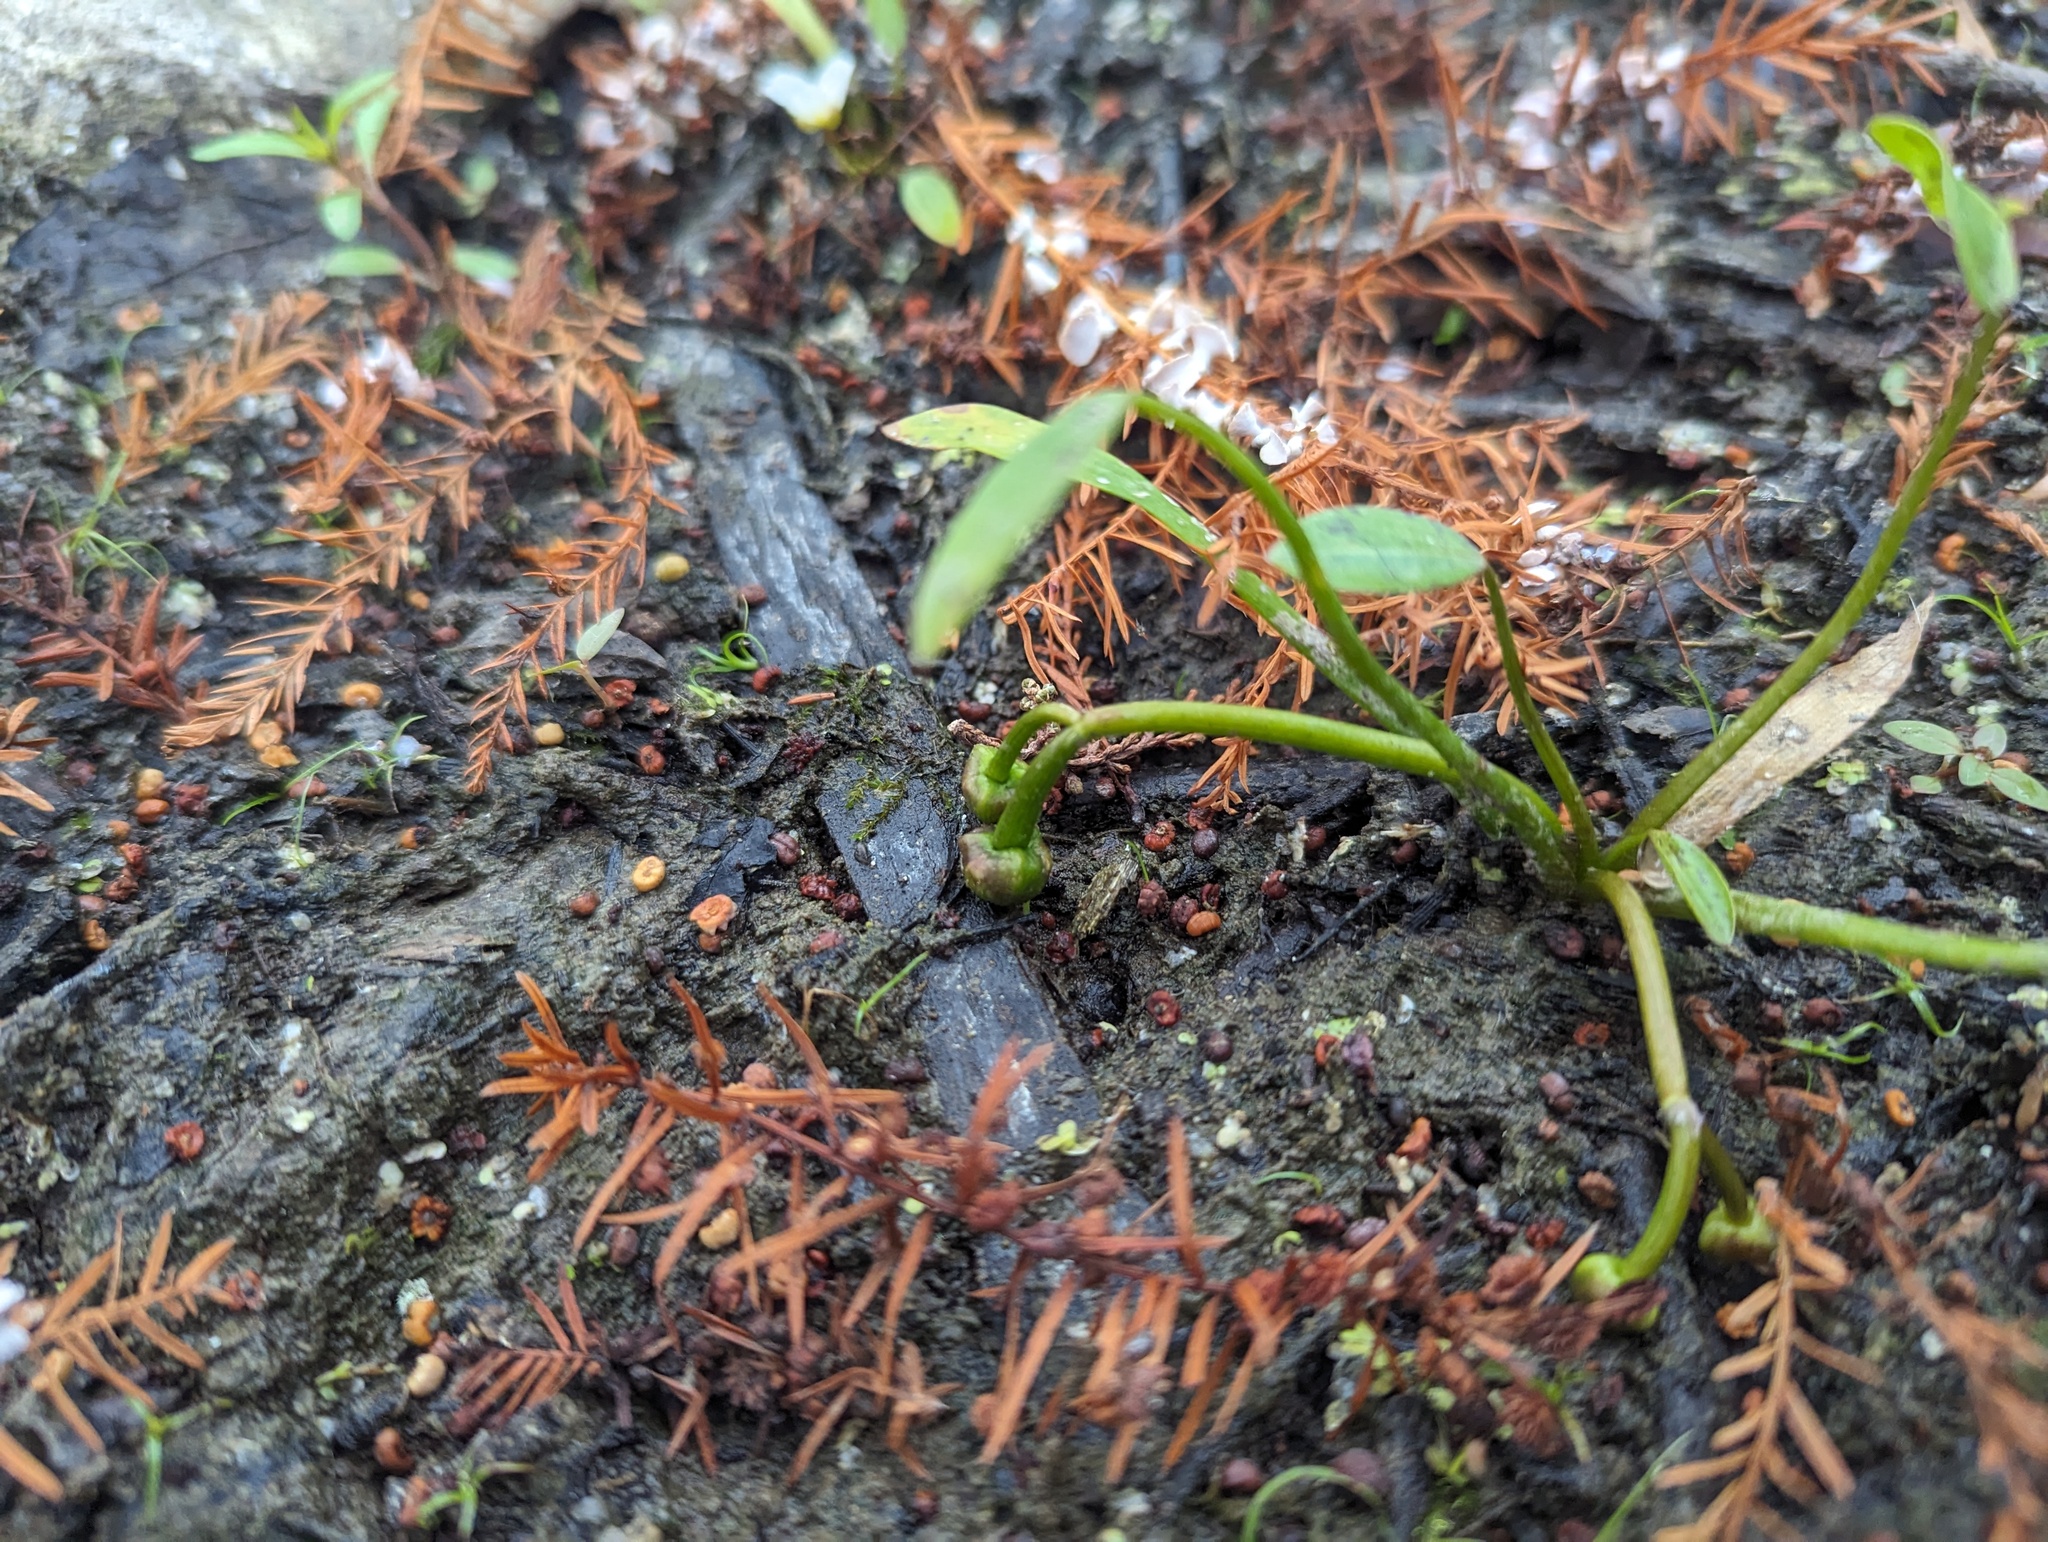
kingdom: Plantae
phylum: Tracheophyta
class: Liliopsida
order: Alismatales
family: Alismataceae
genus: Sagittaria
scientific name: Sagittaria calycina
